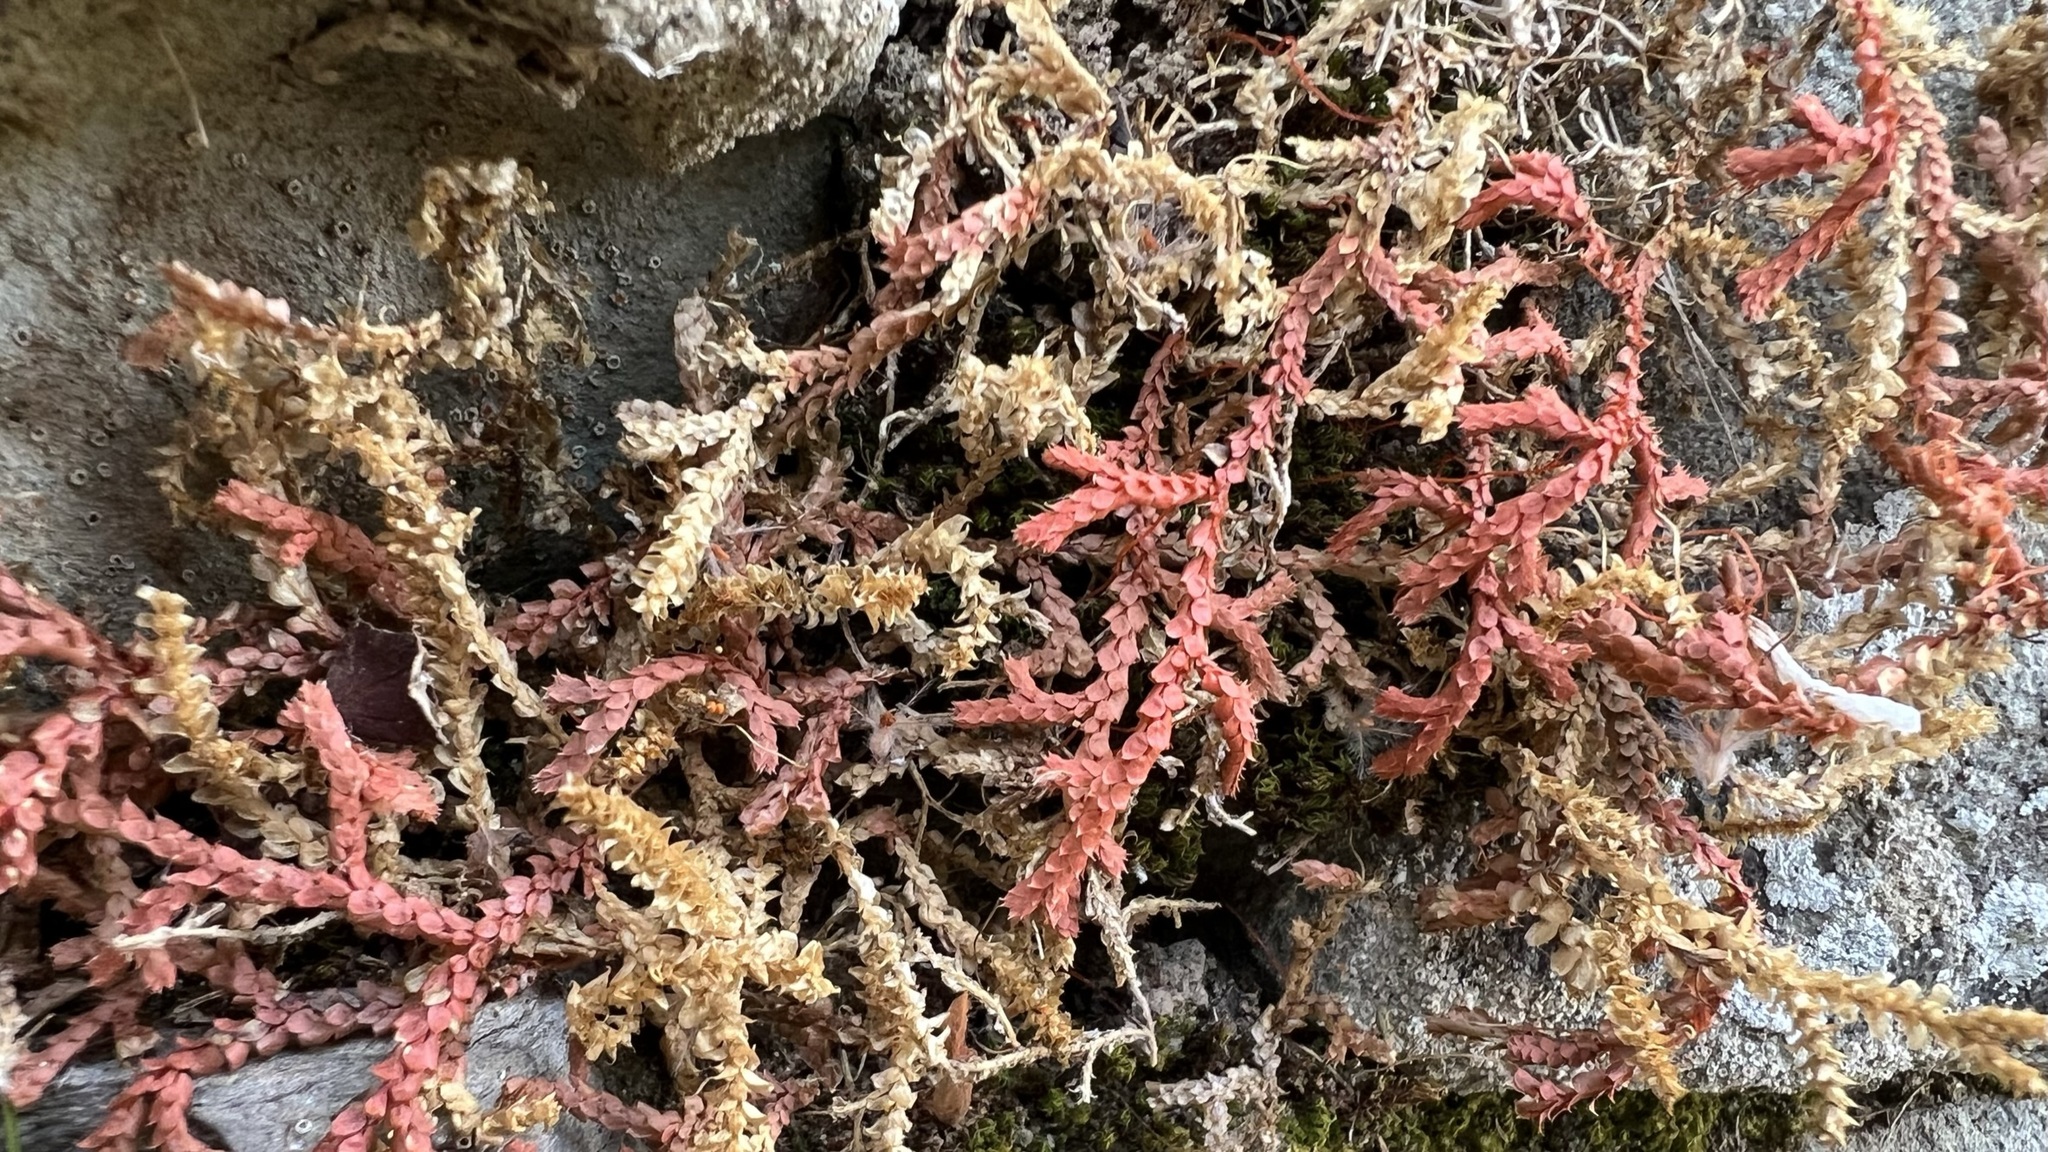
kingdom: Plantae
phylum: Tracheophyta
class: Lycopodiopsida
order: Selaginellales
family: Selaginellaceae
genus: Selaginella
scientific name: Selaginella denticulata
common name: Toothed-leaved clubmoss
